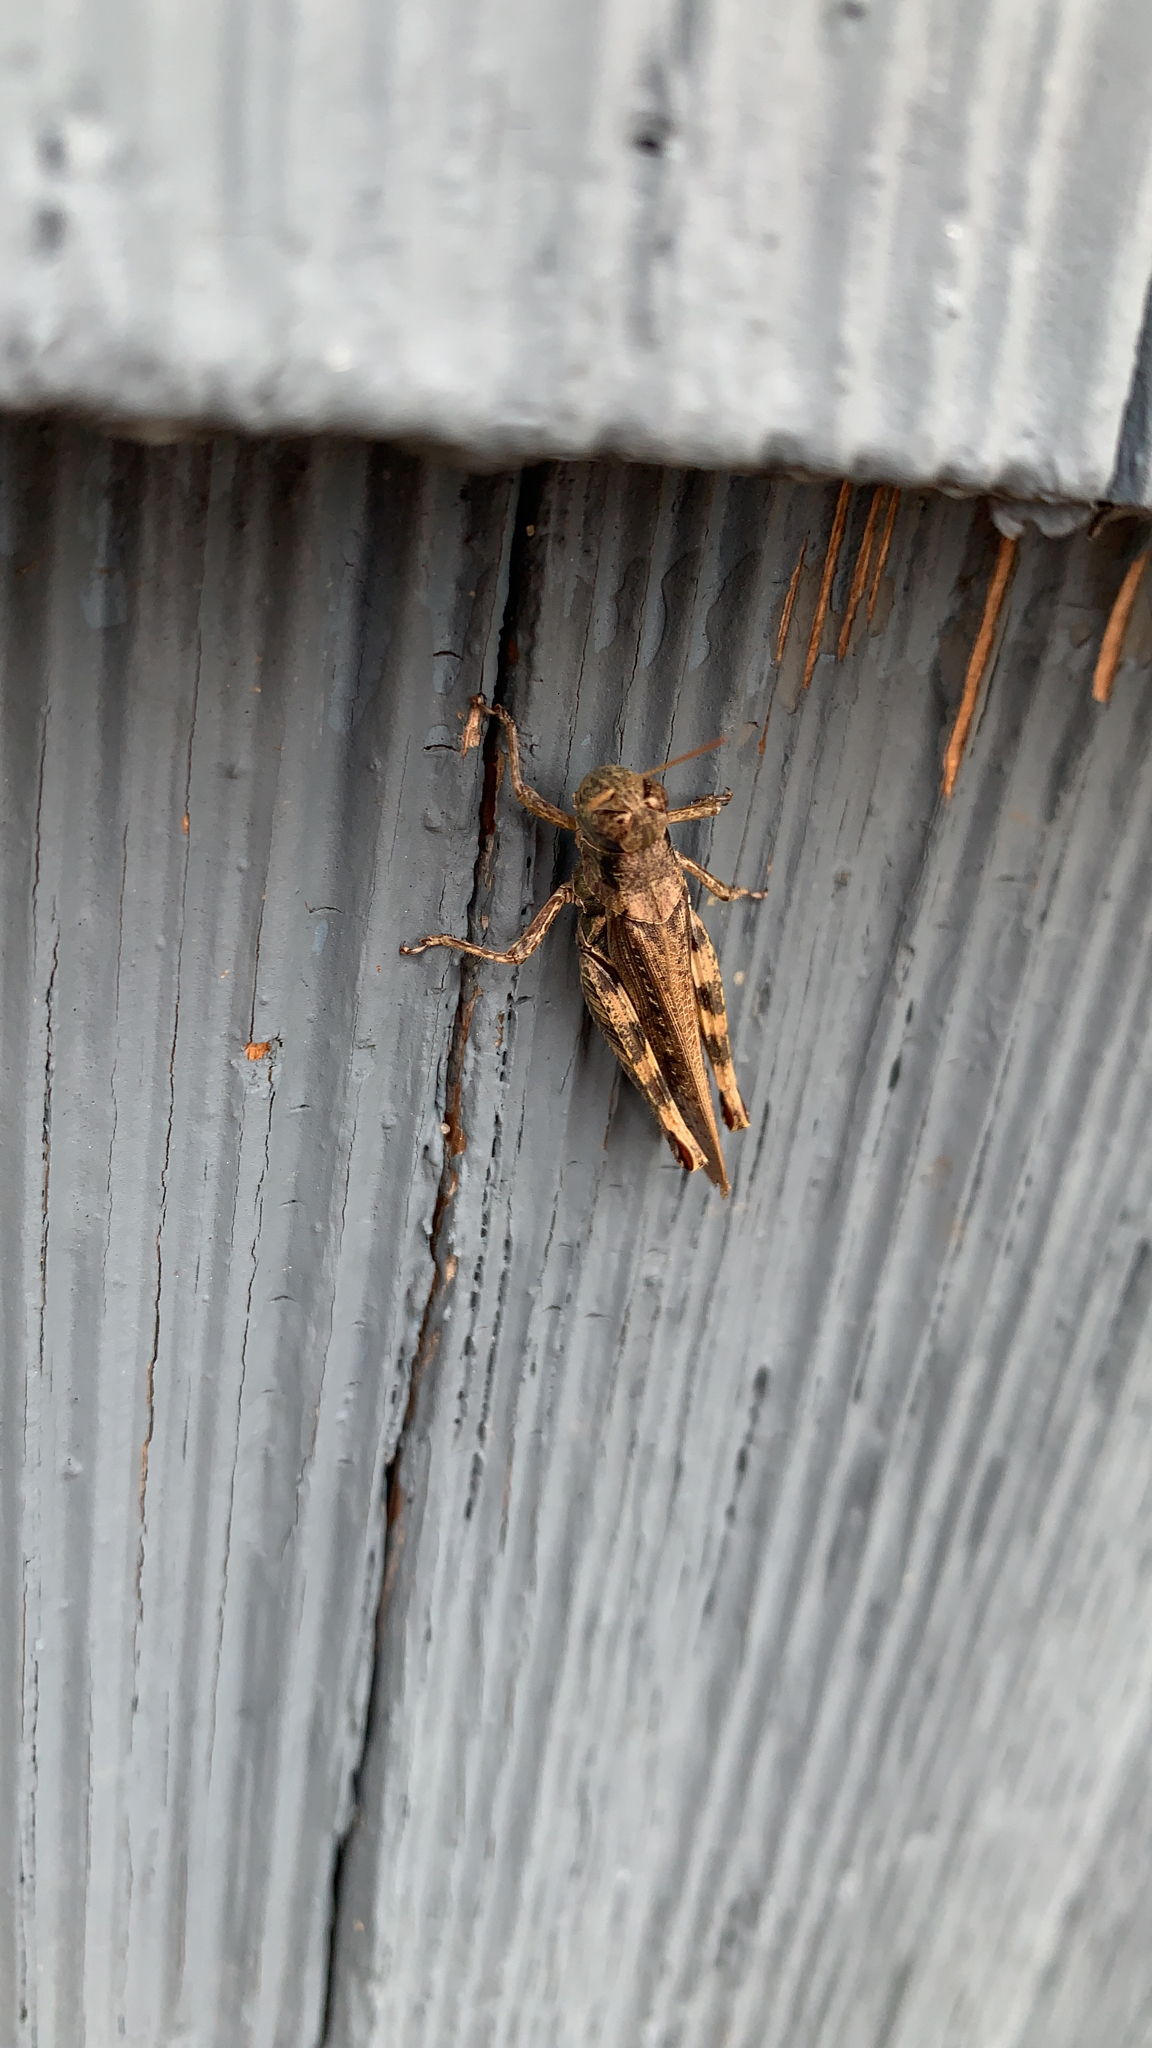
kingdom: Animalia
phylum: Arthropoda
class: Insecta
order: Orthoptera
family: Acrididae
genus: Melanoplus
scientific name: Melanoplus punctulatus
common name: Pine-tree spur-throat grasshopper
